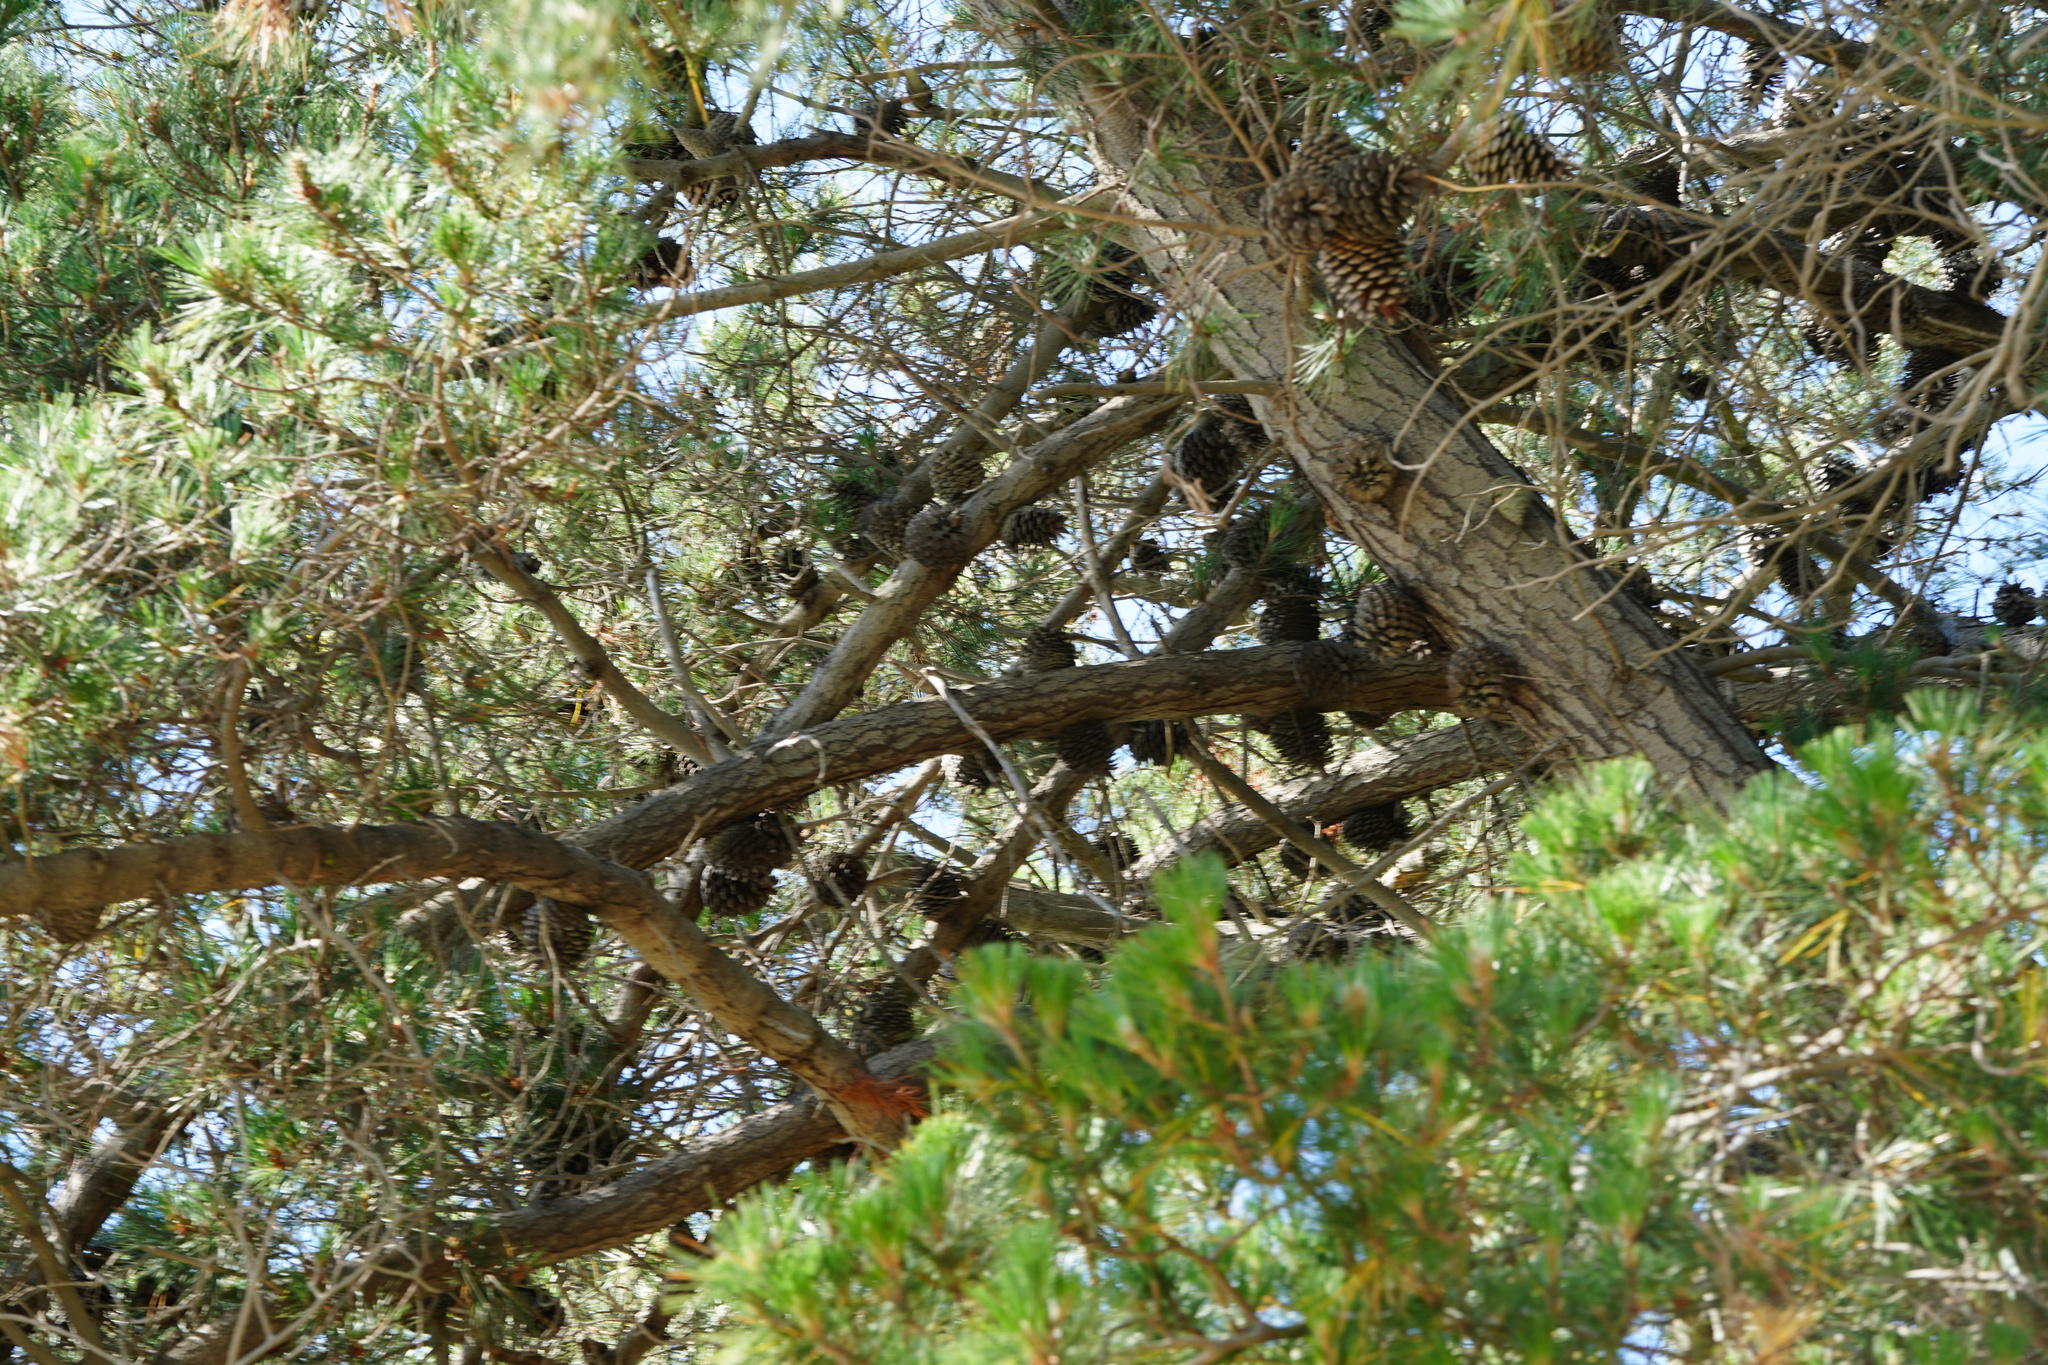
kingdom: Plantae
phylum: Tracheophyta
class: Pinopsida
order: Pinales
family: Pinaceae
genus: Pinus
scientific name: Pinus radiata
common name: Monterey pine
